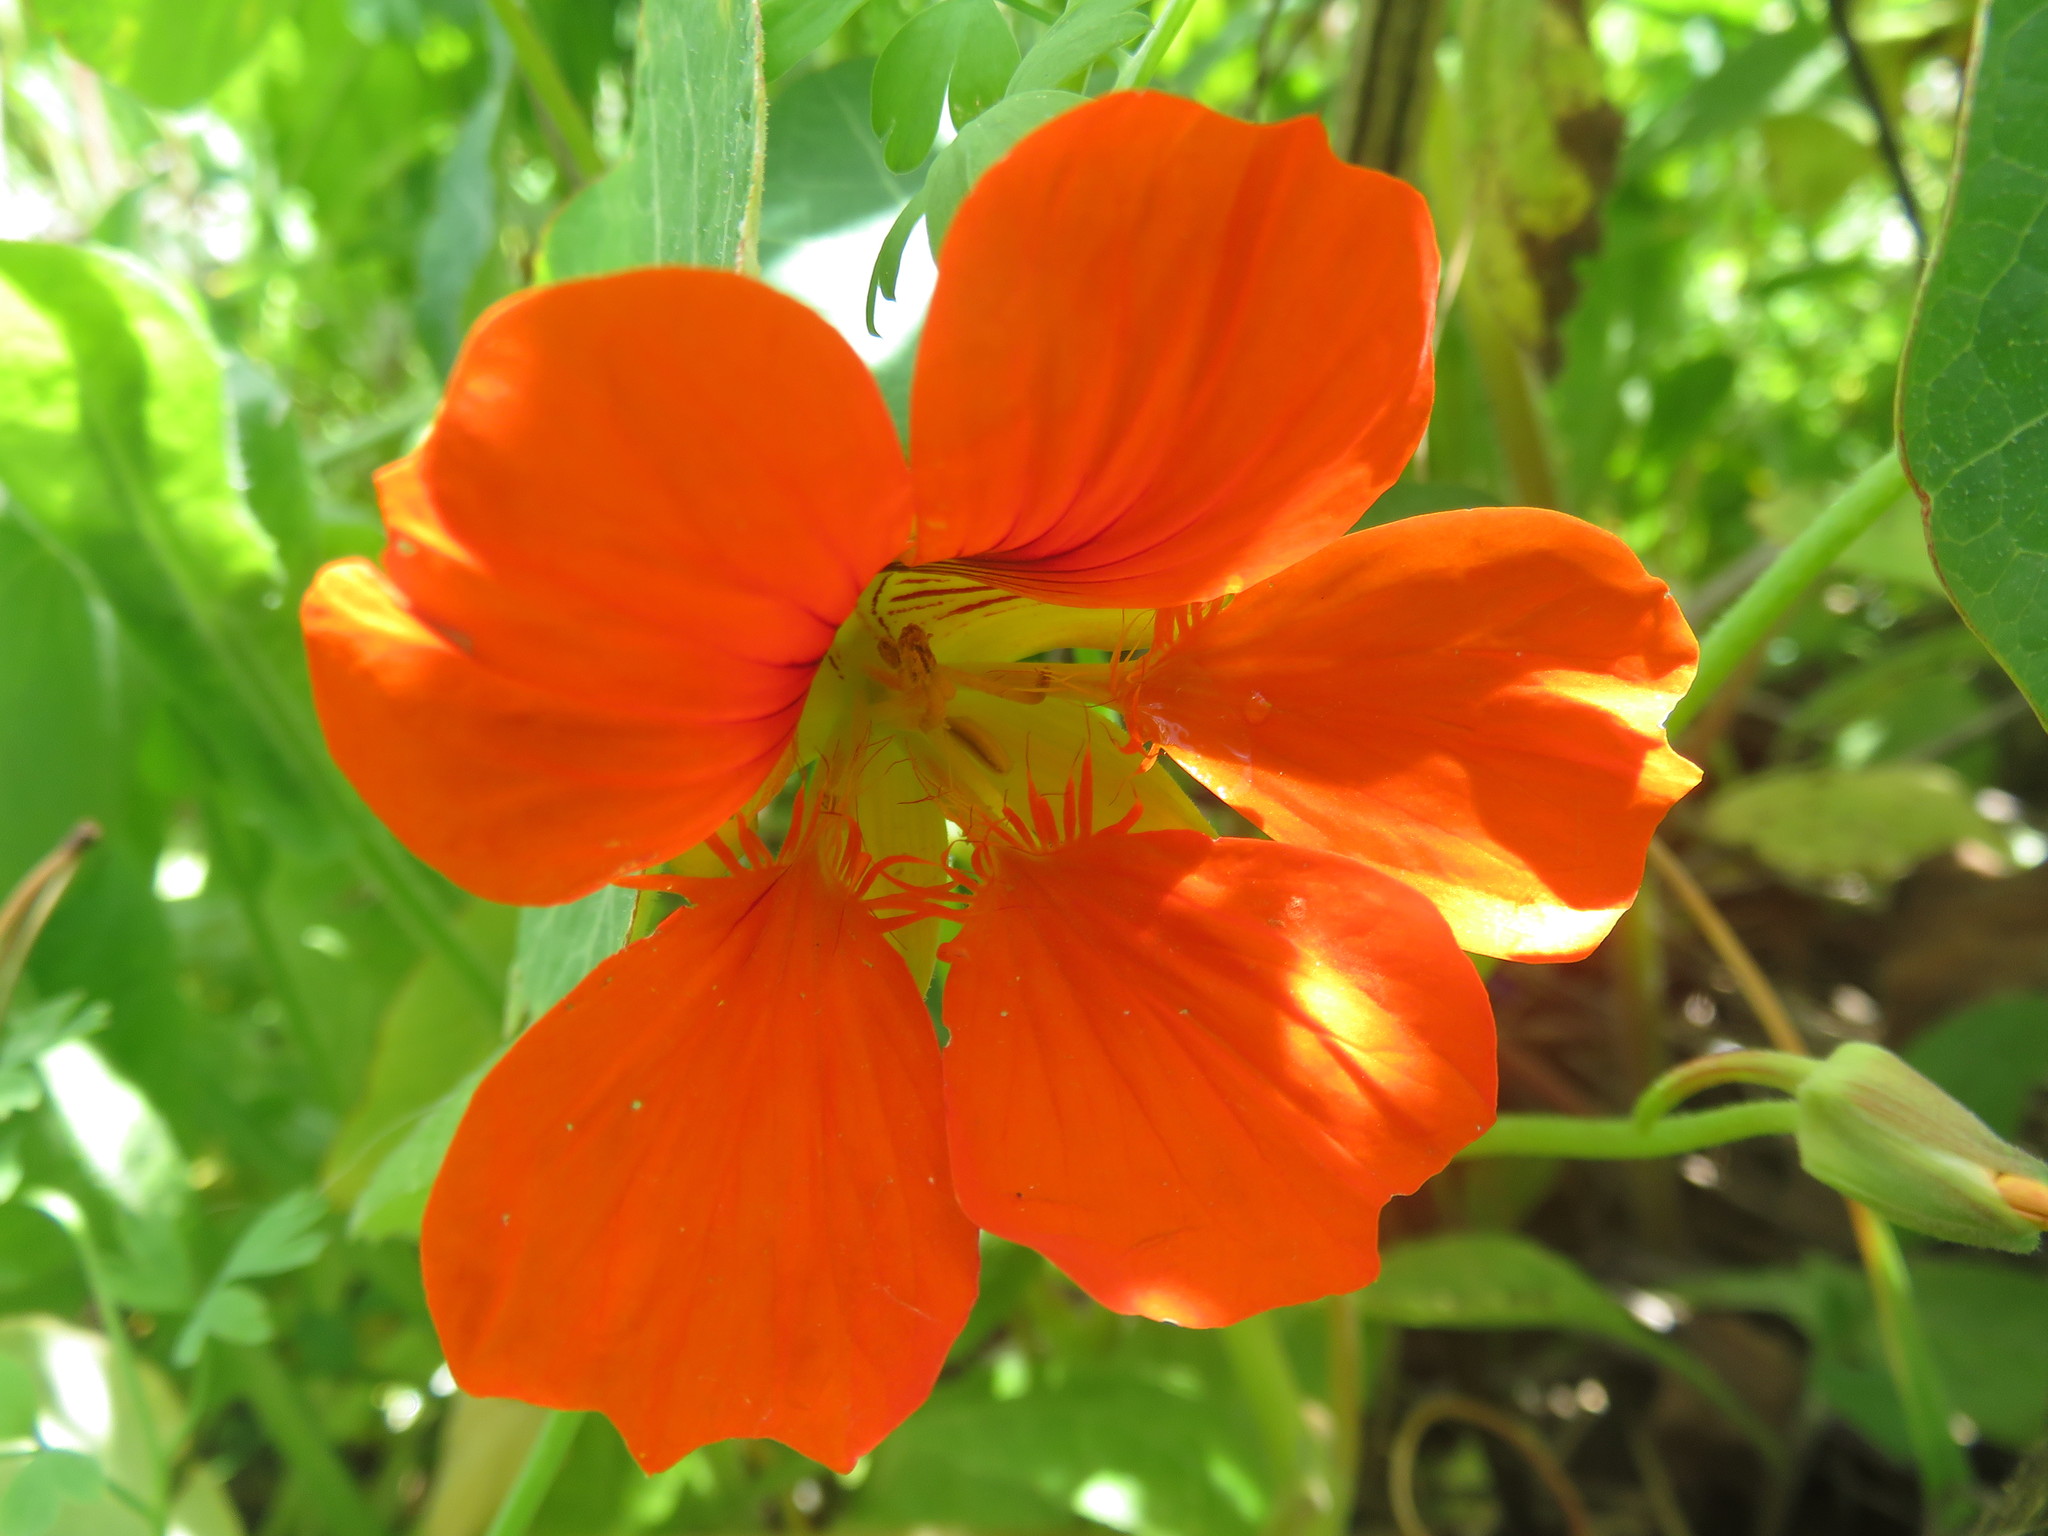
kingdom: Plantae
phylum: Tracheophyta
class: Magnoliopsida
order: Brassicales
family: Tropaeolaceae
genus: Tropaeolum
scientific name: Tropaeolum majus
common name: Nasturtium
